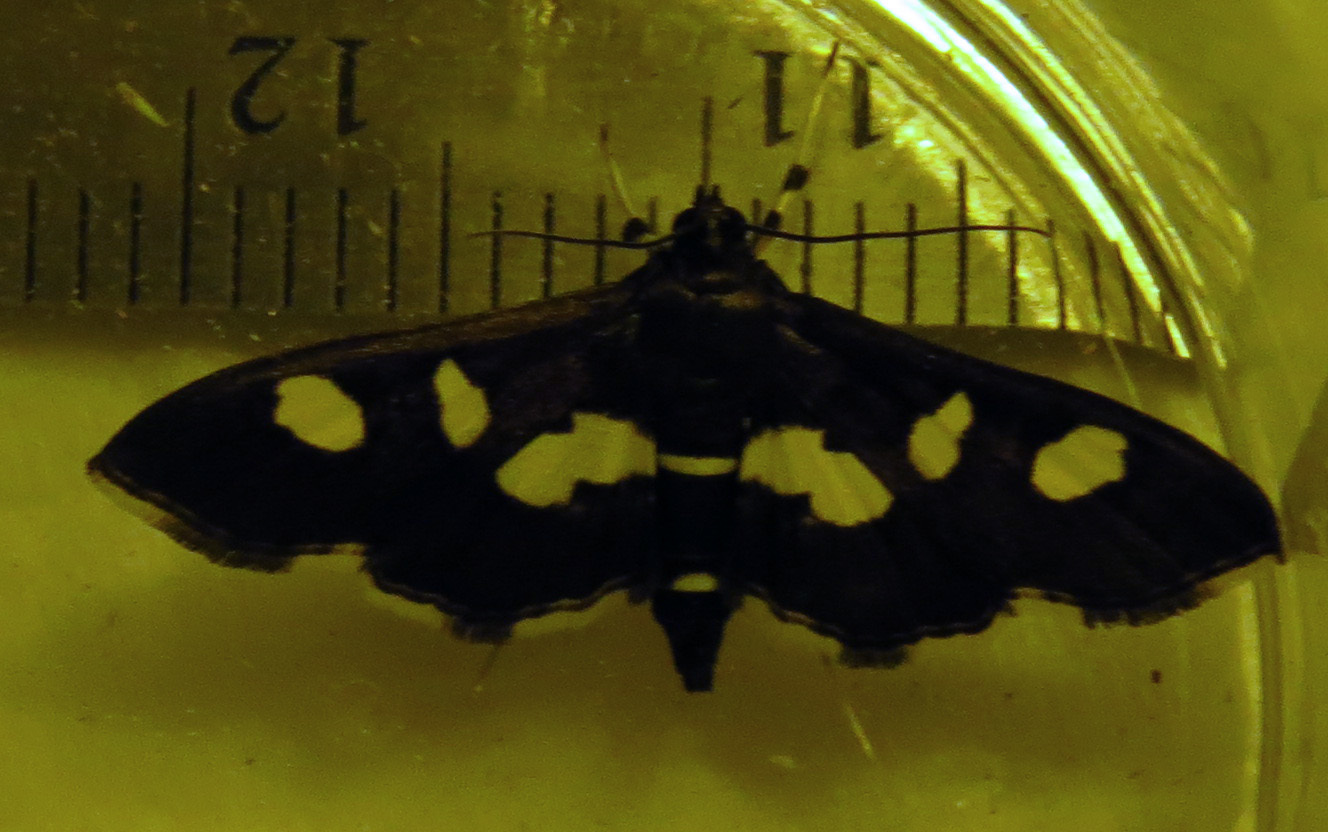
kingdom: Animalia
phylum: Arthropoda
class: Insecta
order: Lepidoptera
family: Crambidae
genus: Desmia
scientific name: Desmia funeralis
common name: Grape leaf folder moth
